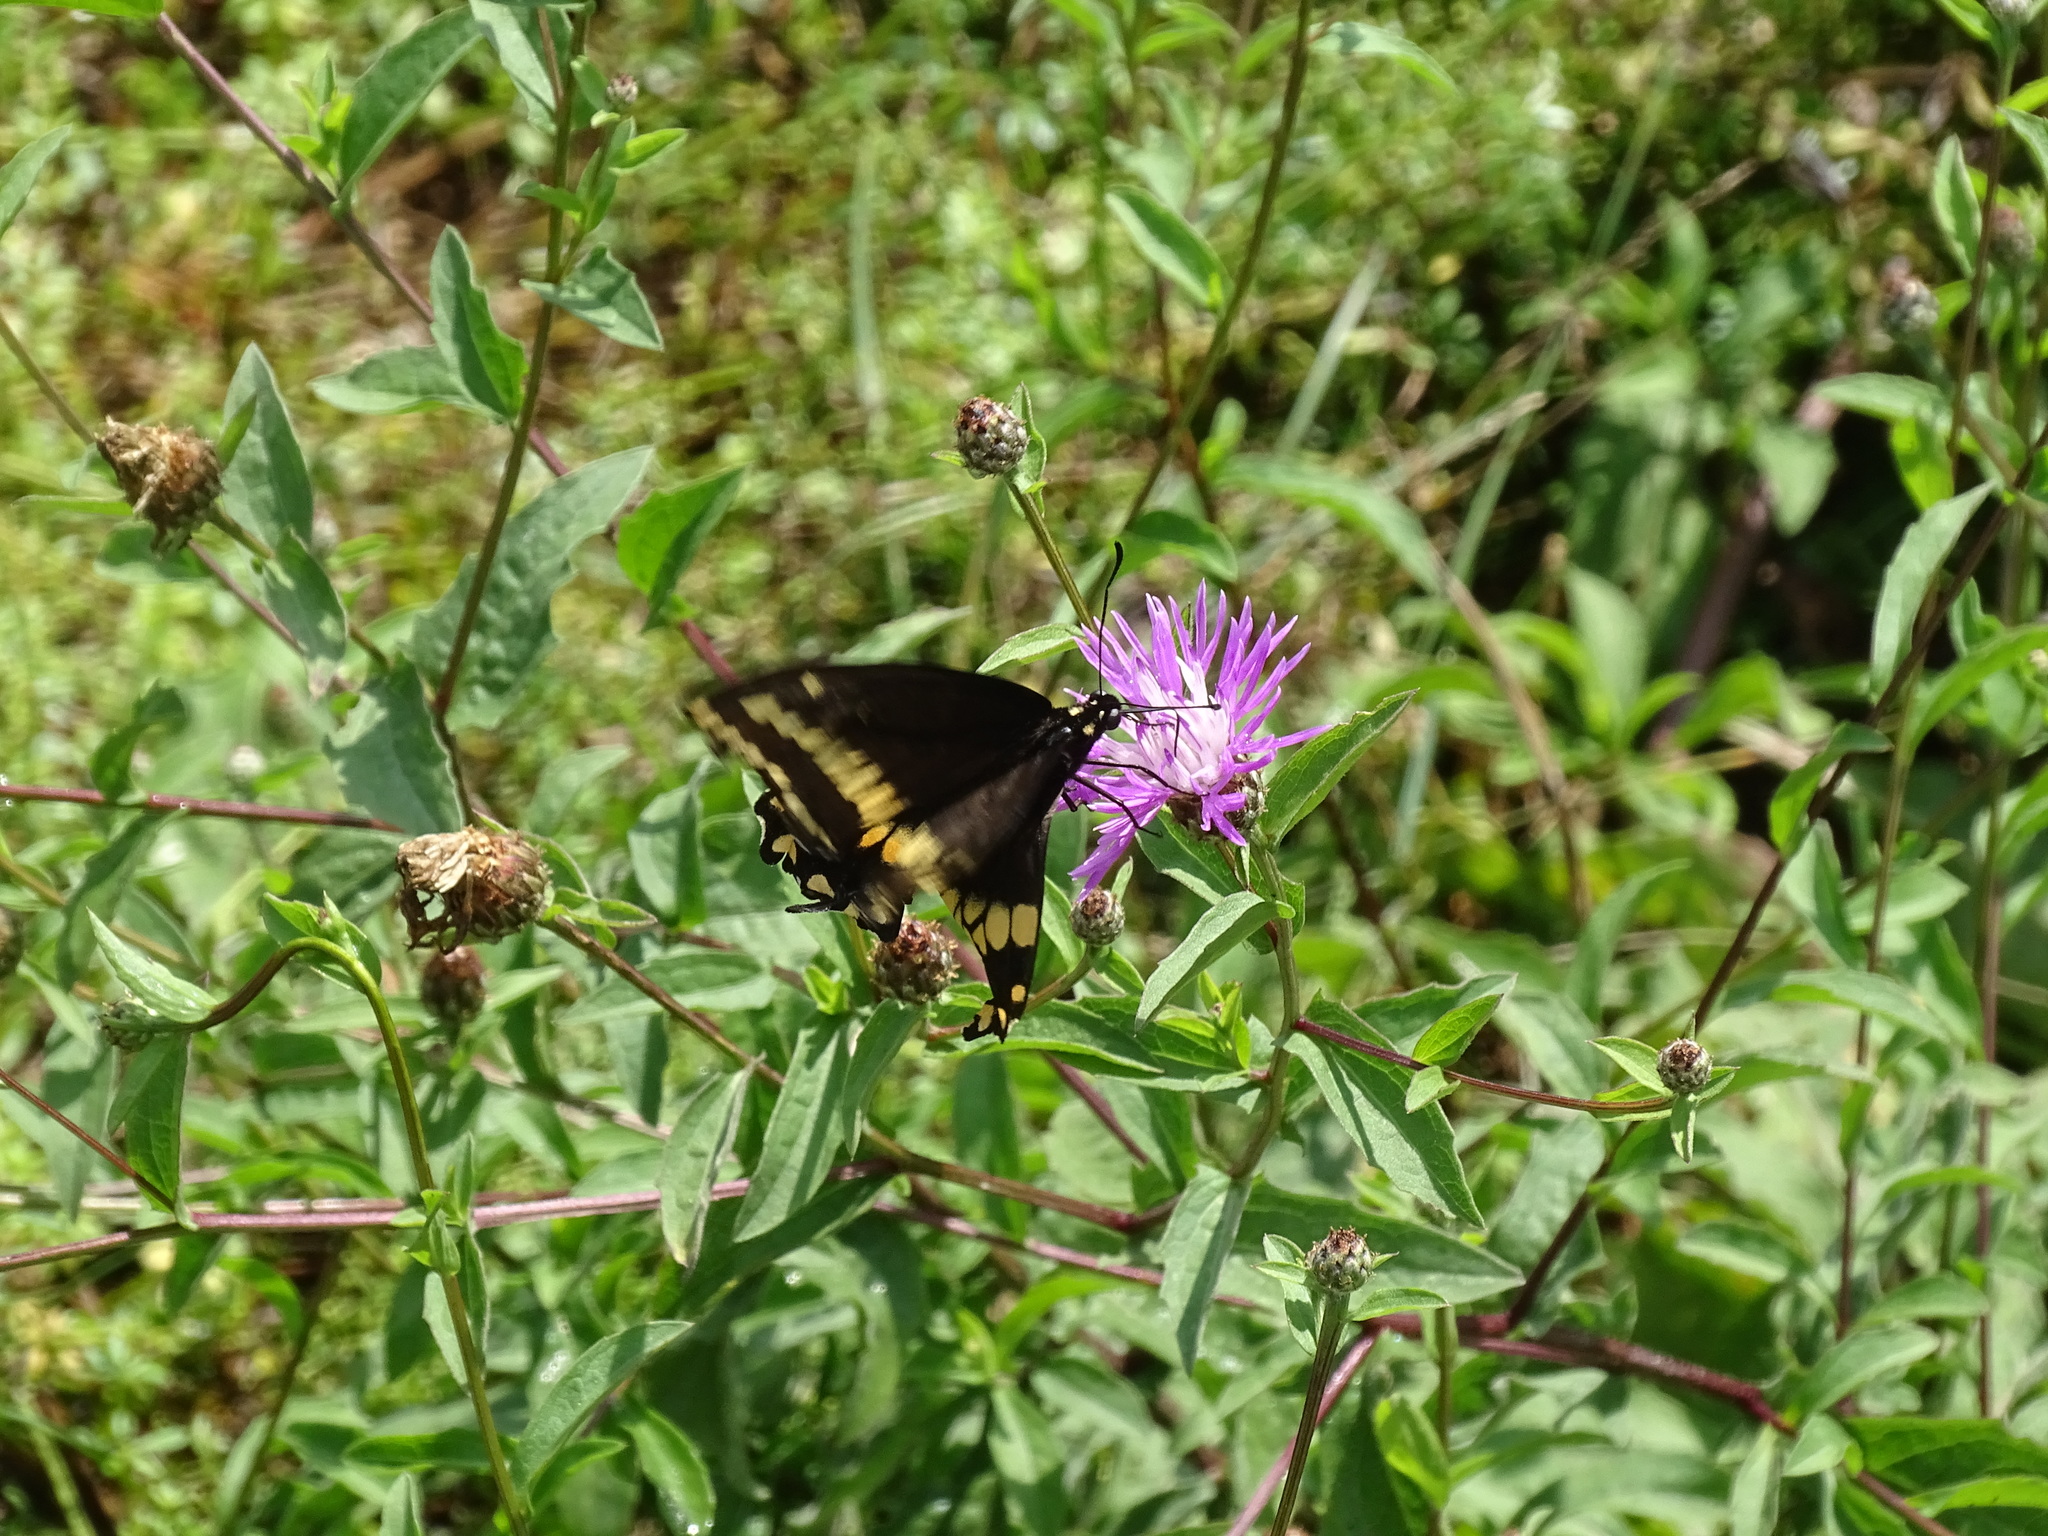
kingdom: Animalia
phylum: Arthropoda
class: Insecta
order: Lepidoptera
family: Papilionidae
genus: Papilio
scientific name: Papilio polyxenes
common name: Black swallowtail
